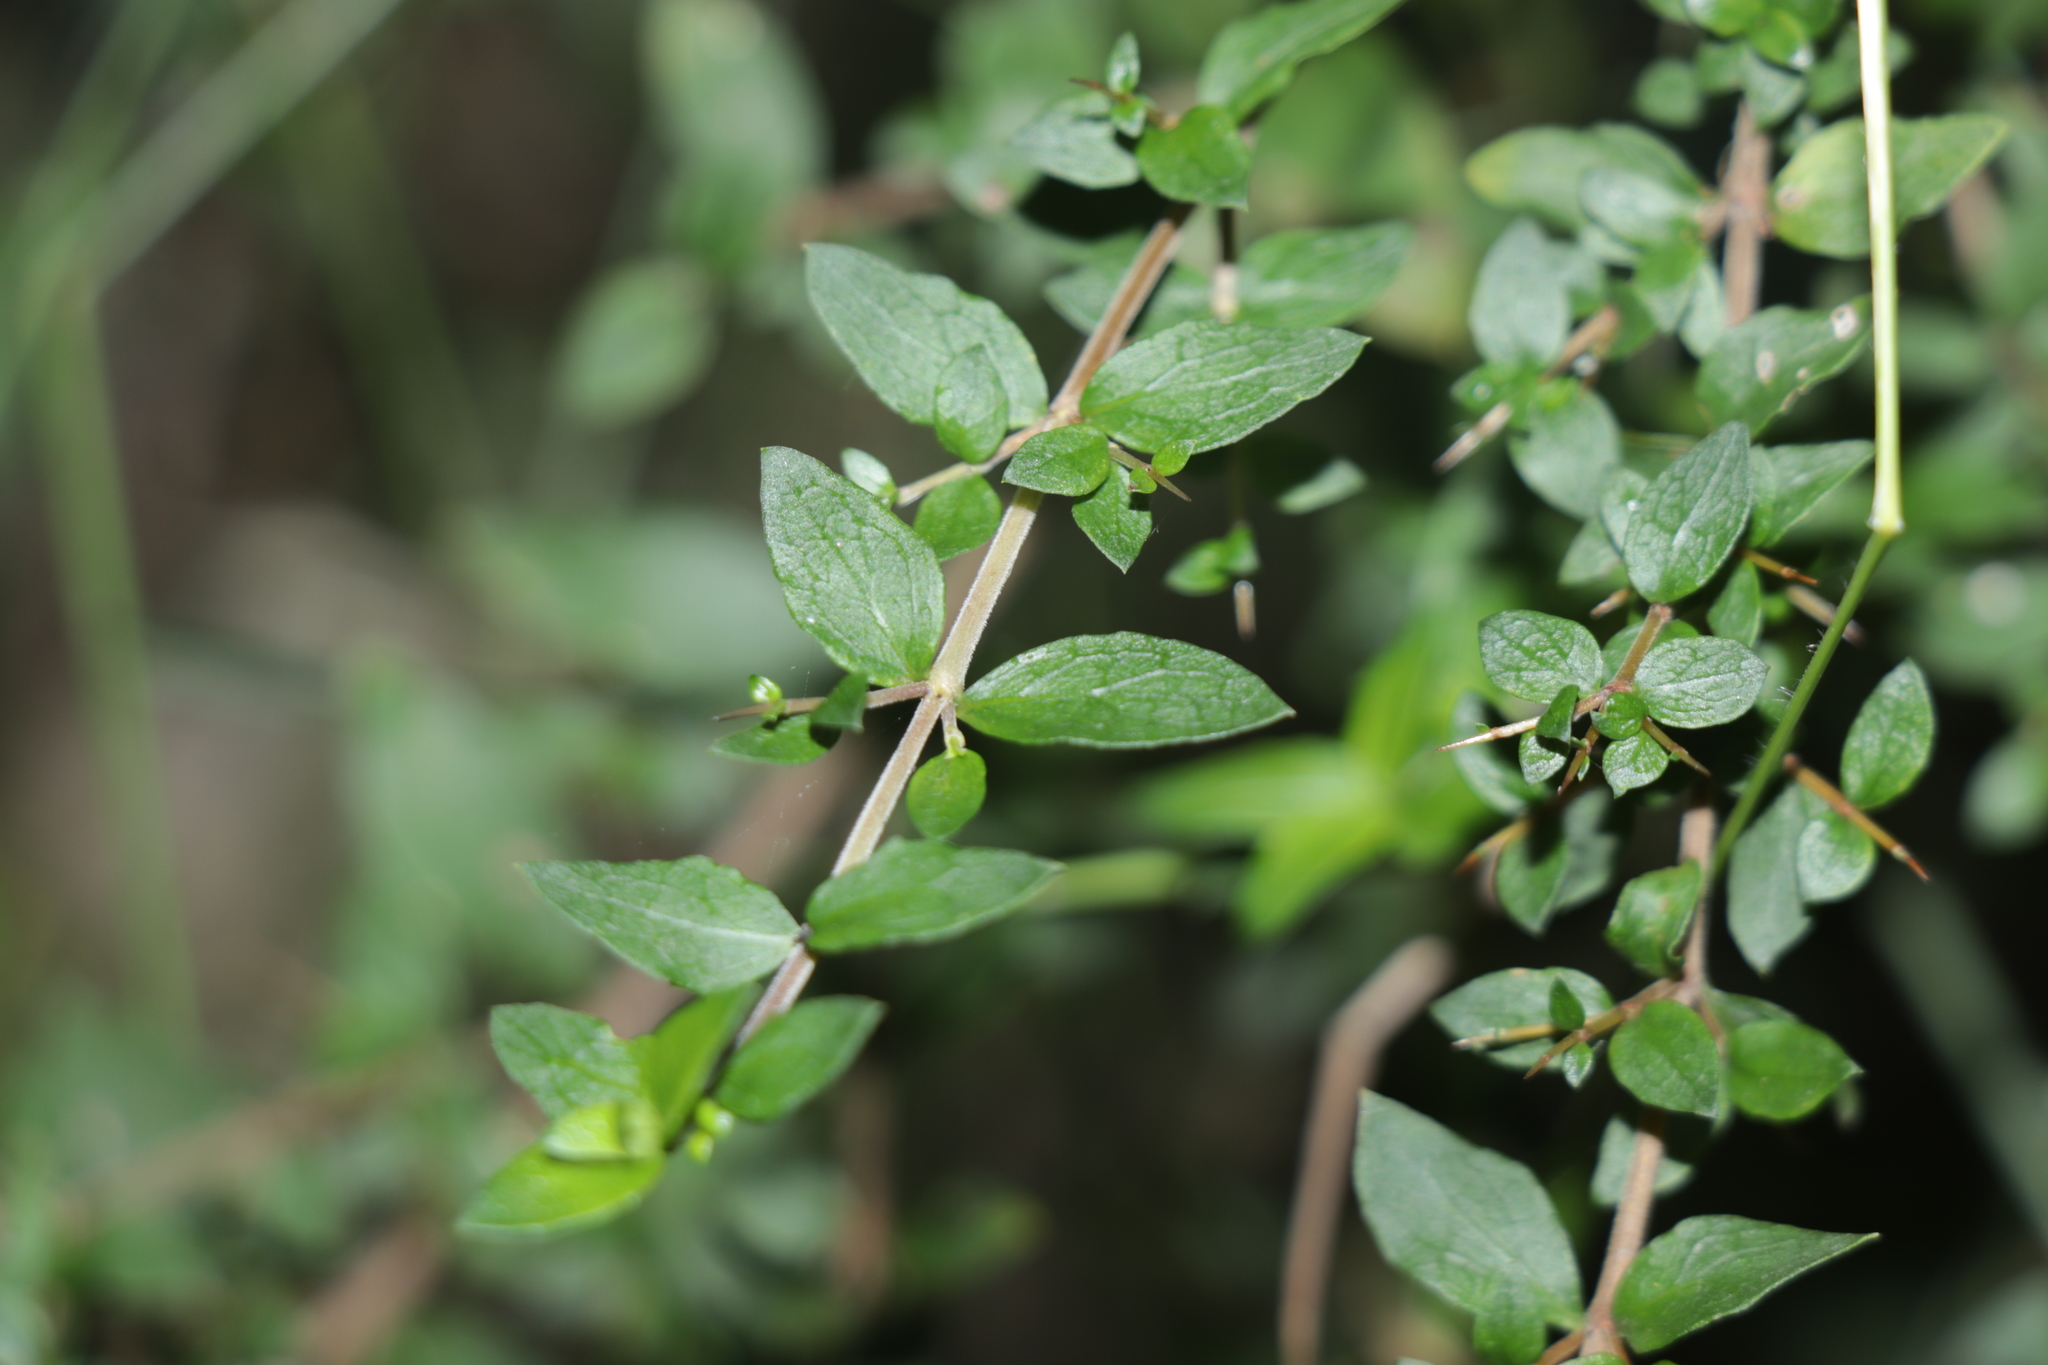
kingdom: Plantae
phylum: Tracheophyta
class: Magnoliopsida
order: Gentianales
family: Rubiaceae
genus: Coprosma
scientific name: Coprosma quadrifida
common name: Prickly currantbush
